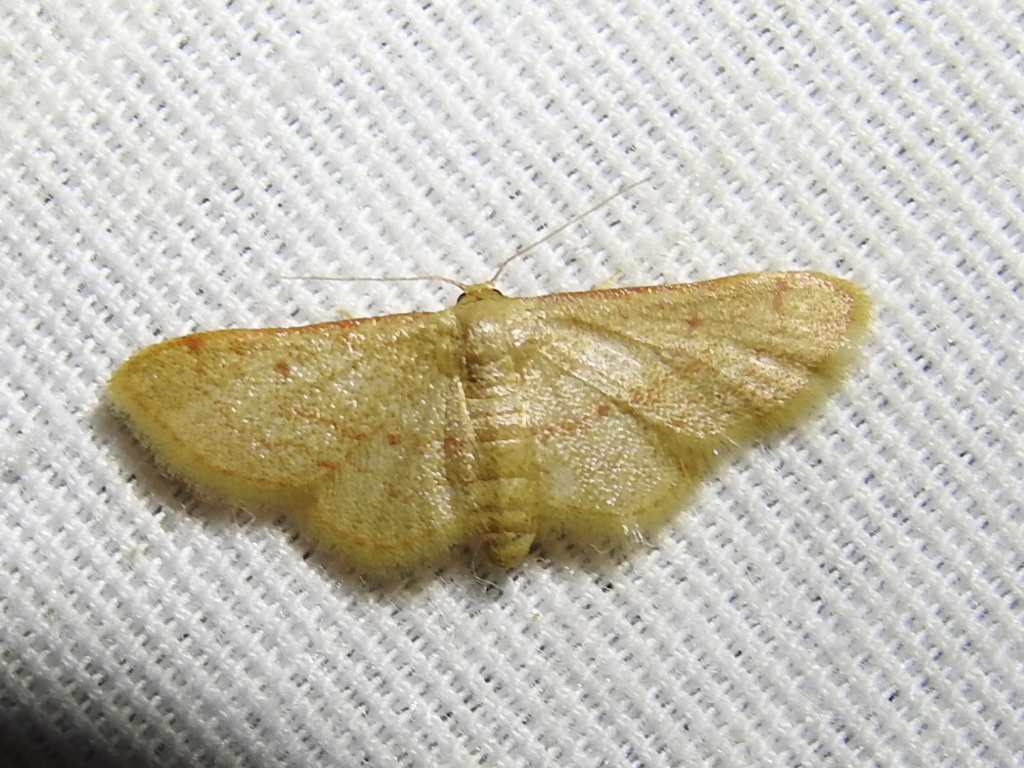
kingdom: Animalia
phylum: Arthropoda
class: Insecta
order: Lepidoptera
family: Geometridae
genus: Idaea
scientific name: Idaea demissaria
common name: Red-bordered wave
